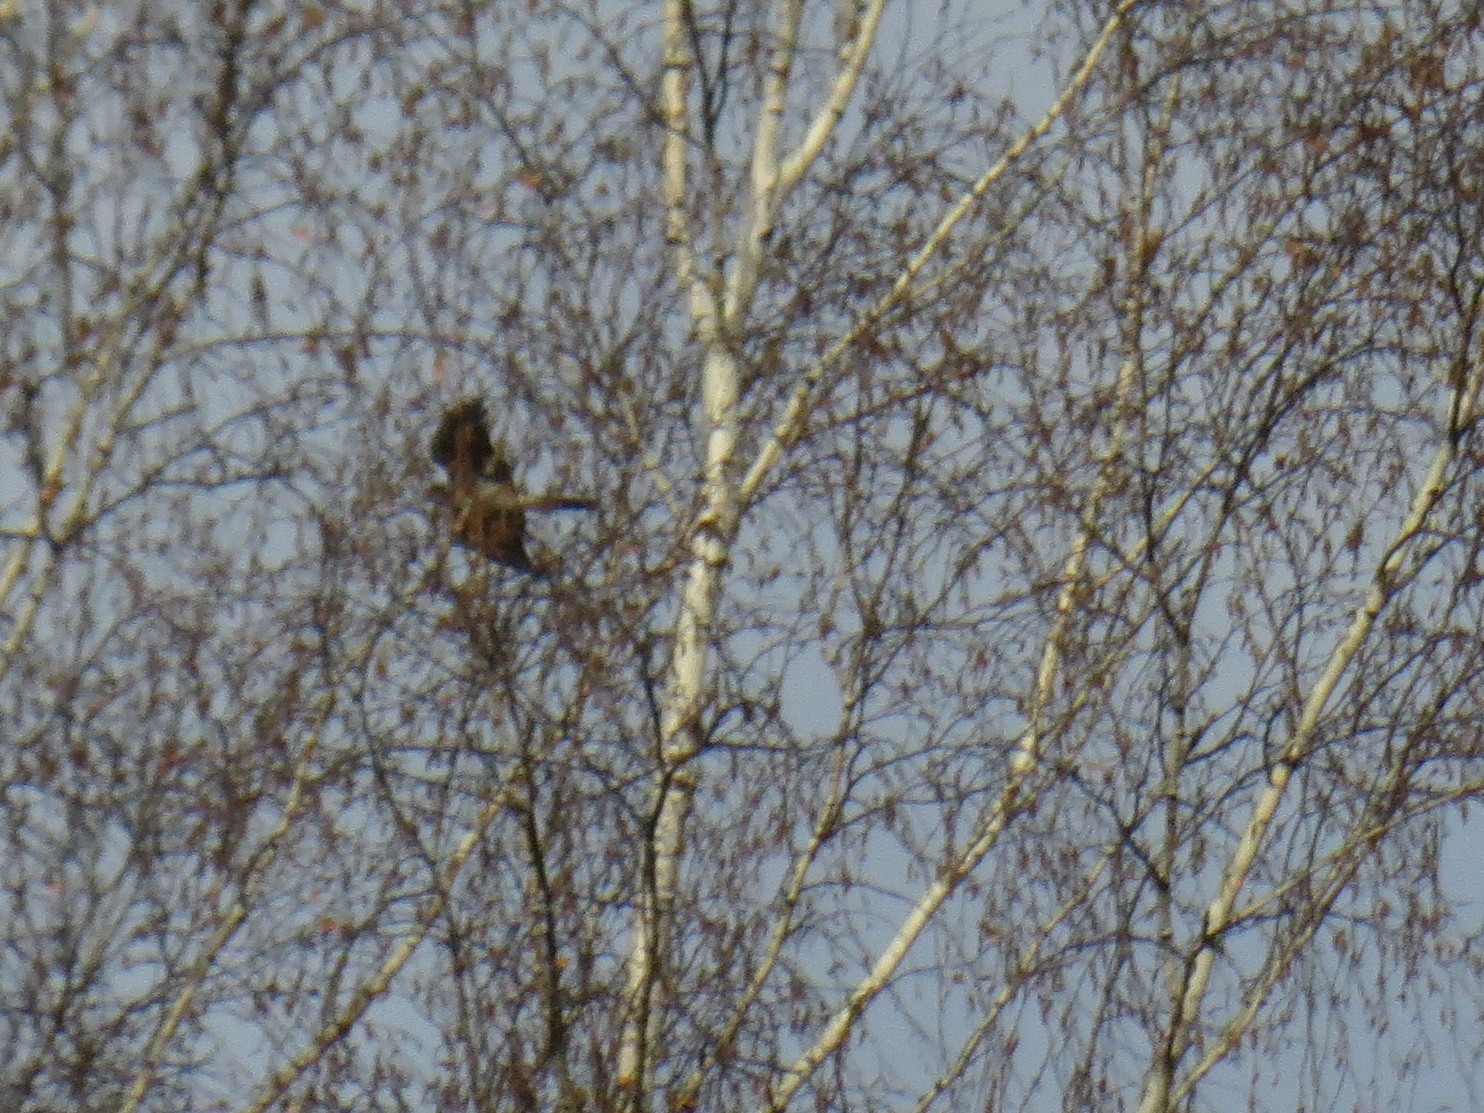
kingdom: Animalia
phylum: Chordata
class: Aves
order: Accipitriformes
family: Accipitridae
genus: Accipiter
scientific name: Accipiter nisus
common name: Eurasian sparrowhawk
